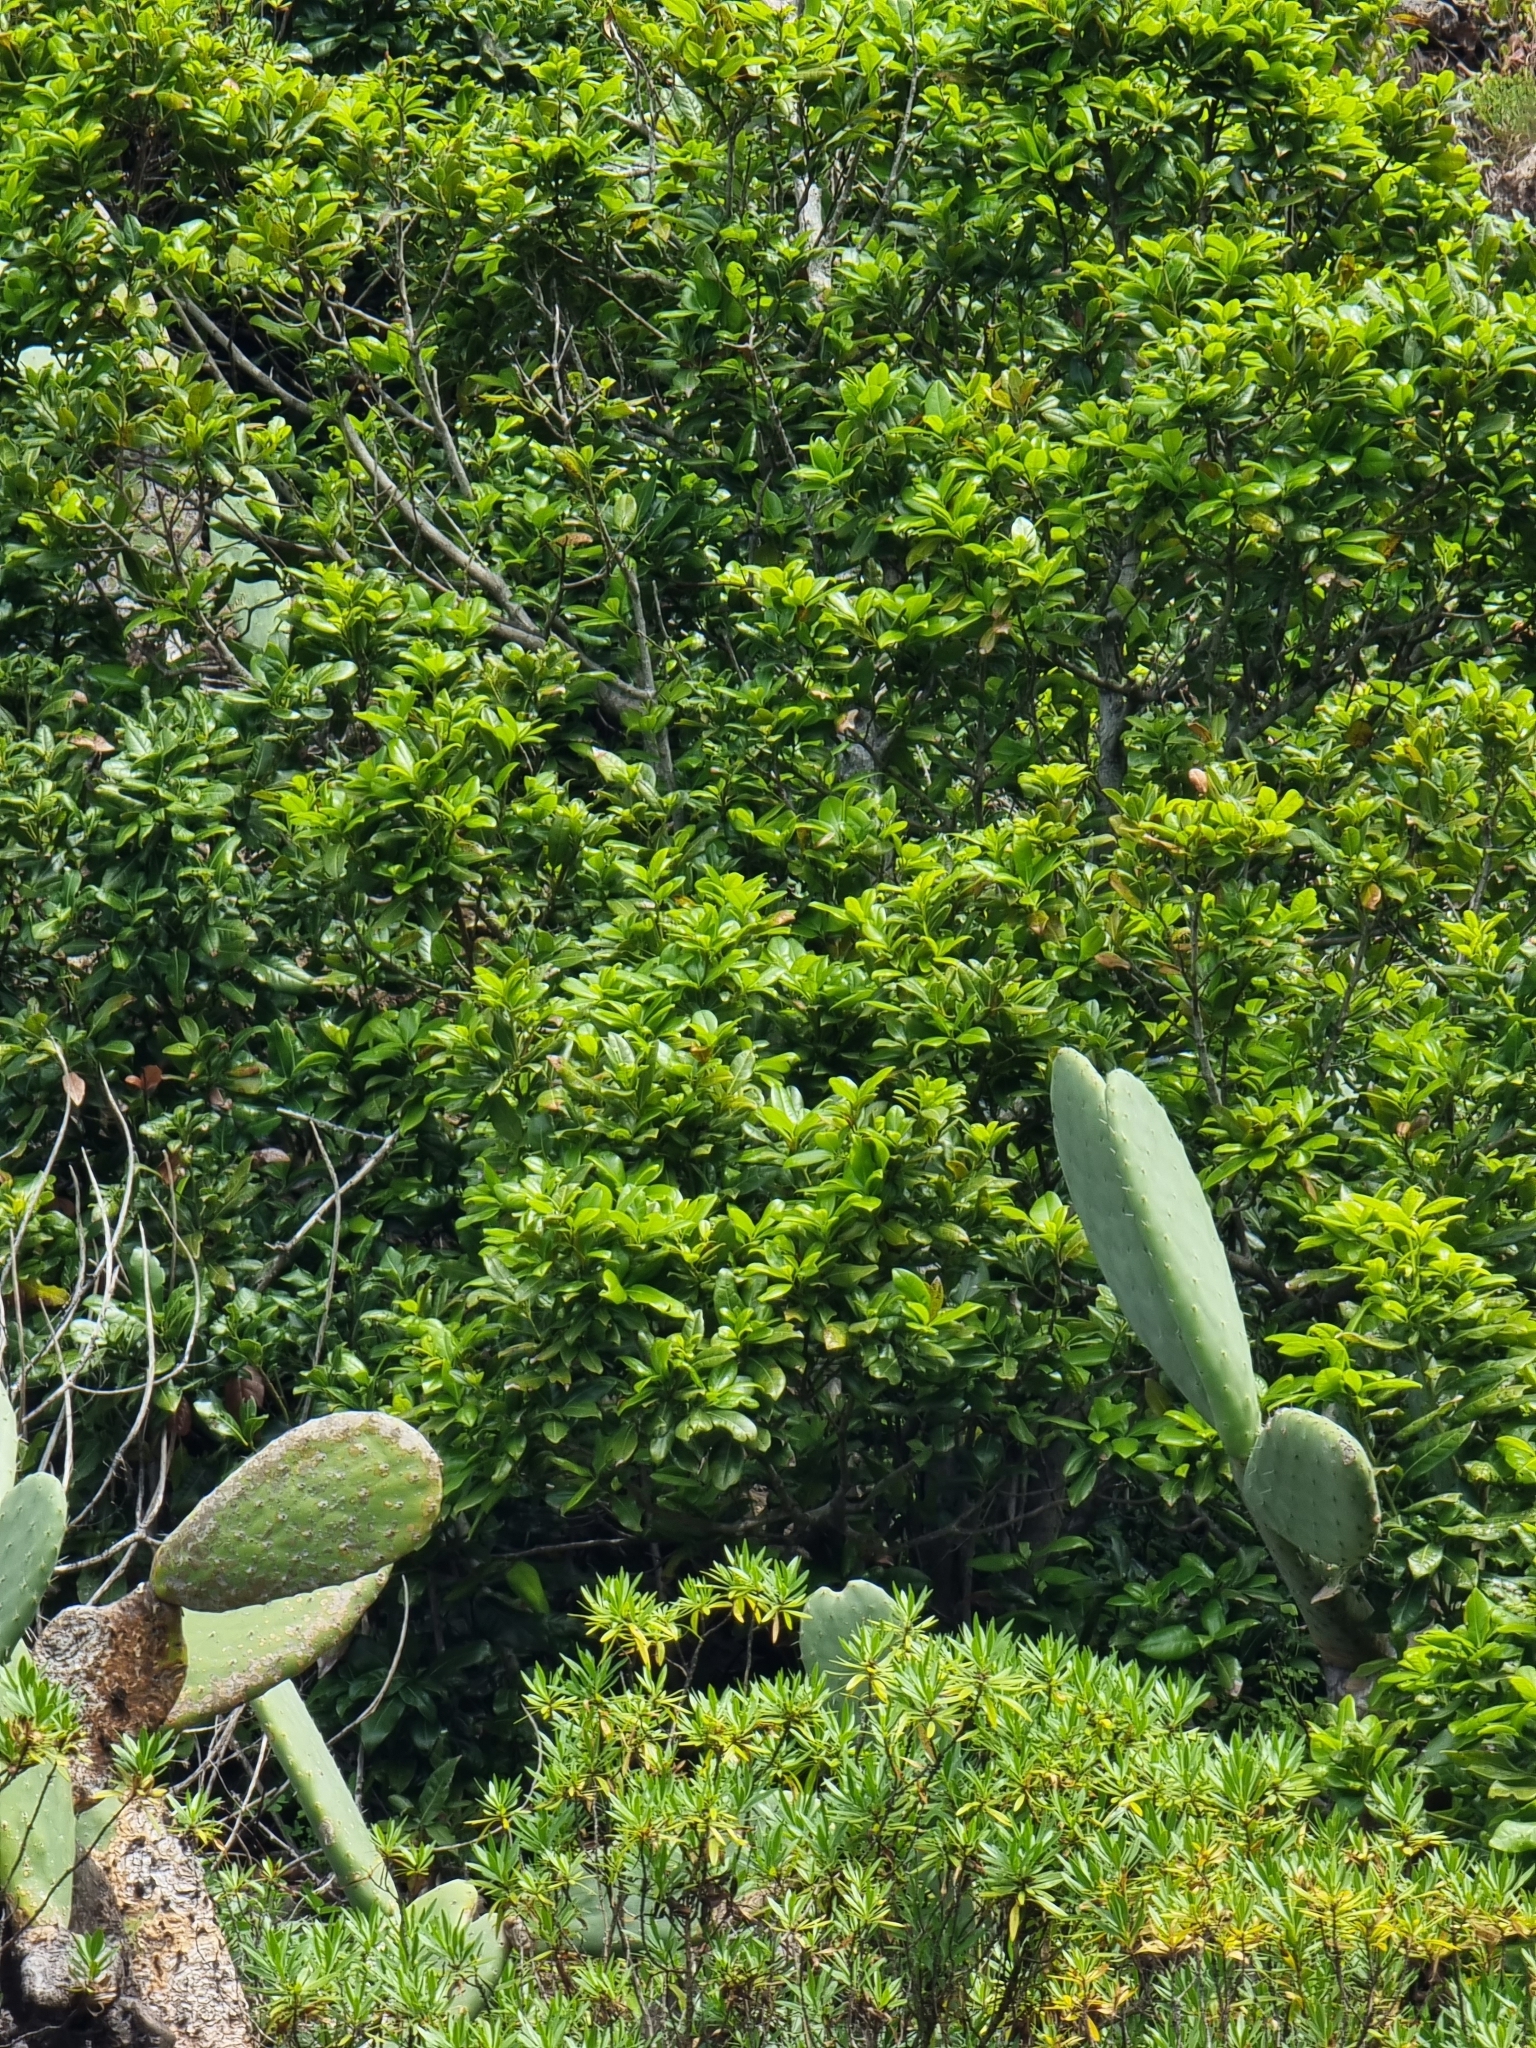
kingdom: Plantae
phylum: Tracheophyta
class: Magnoliopsida
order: Laurales
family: Lauraceae
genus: Apollonias
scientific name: Apollonias barbujana
